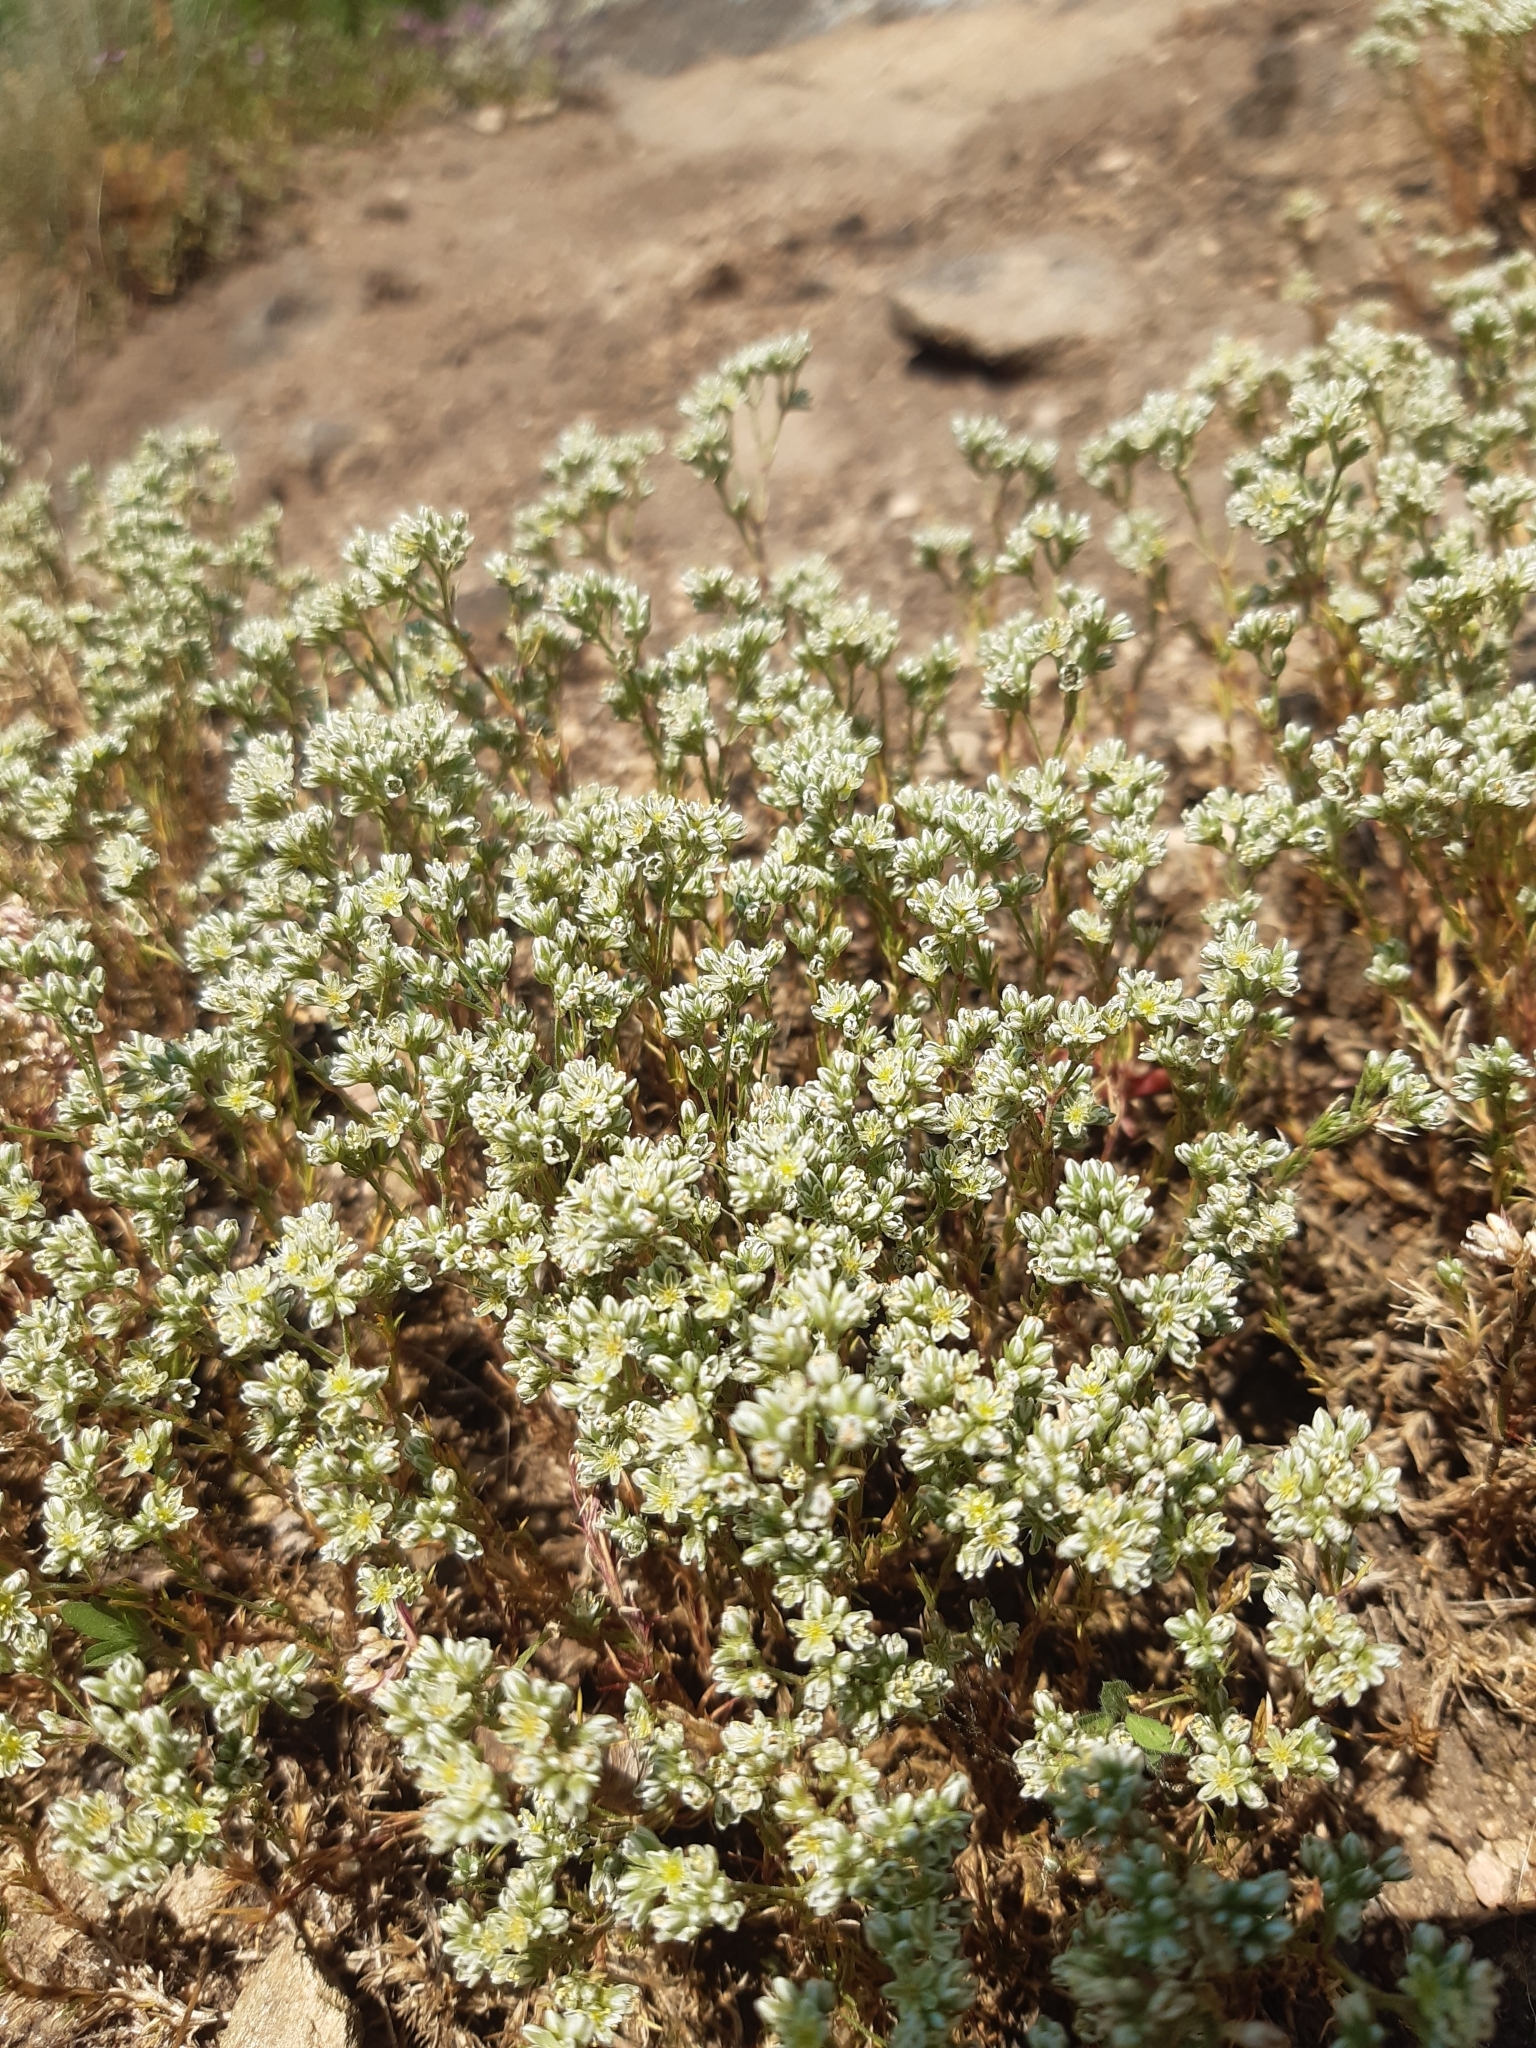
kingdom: Plantae
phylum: Tracheophyta
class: Magnoliopsida
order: Caryophyllales
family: Caryophyllaceae
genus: Scleranthus
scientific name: Scleranthus perennis
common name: Perennial knawel
